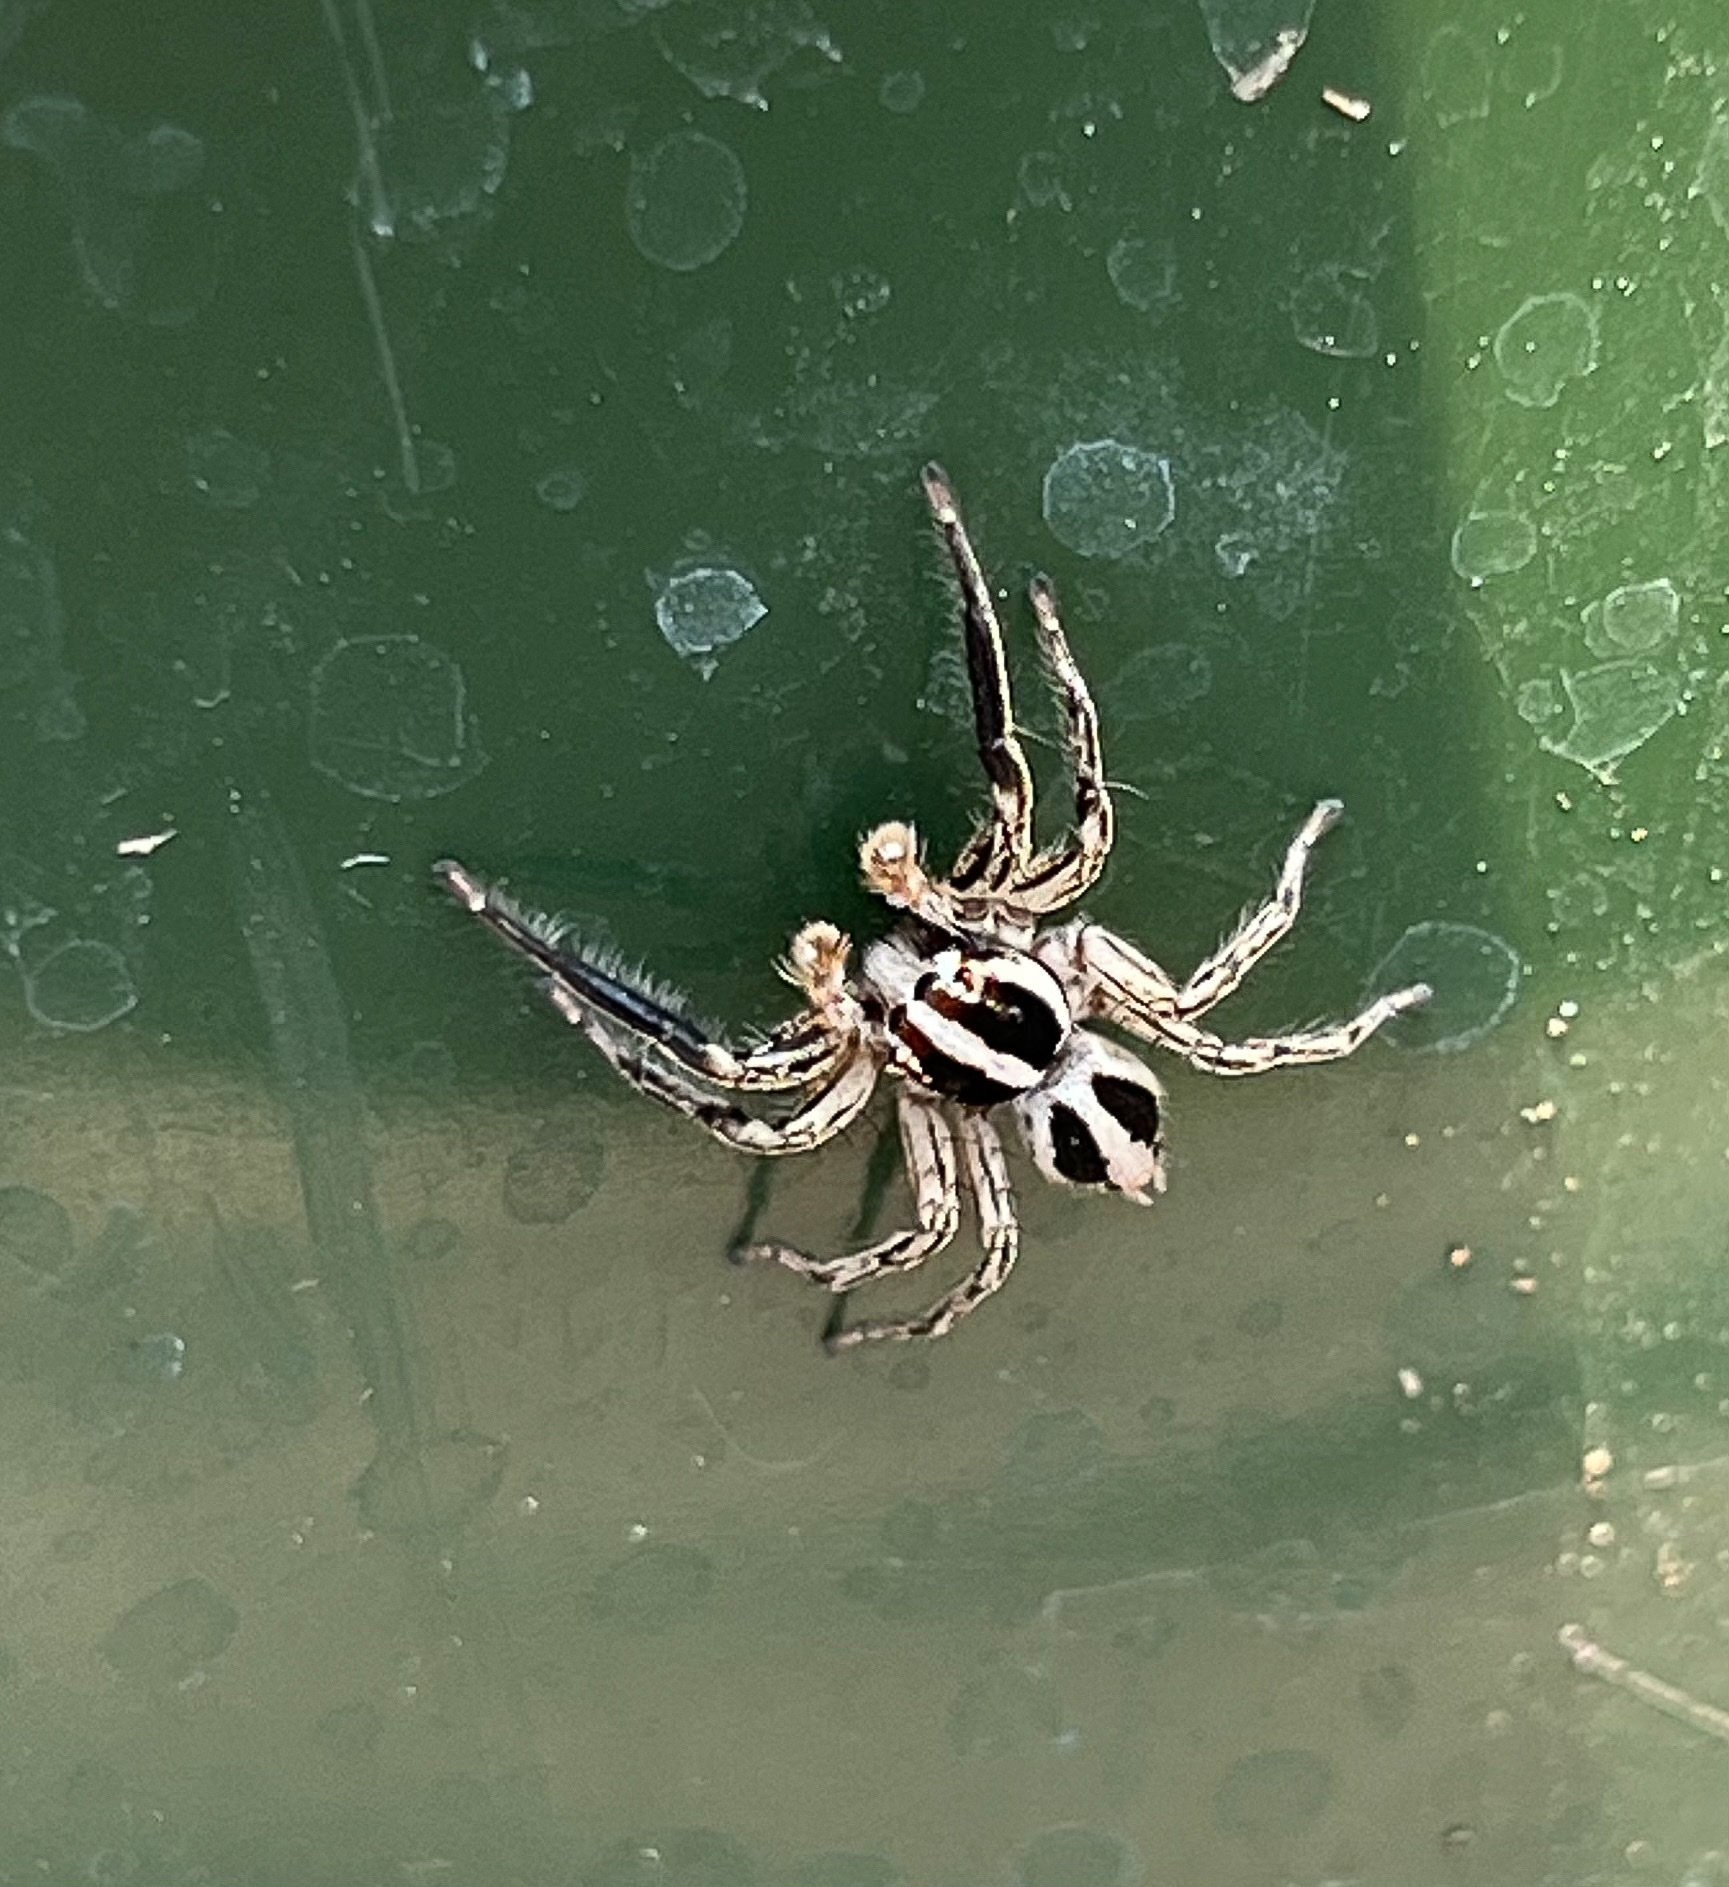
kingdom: Animalia
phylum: Arthropoda
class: Arachnida
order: Araneae
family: Salticidae
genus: Plexippus
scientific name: Plexippus paykulli
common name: Pantropical jumper
